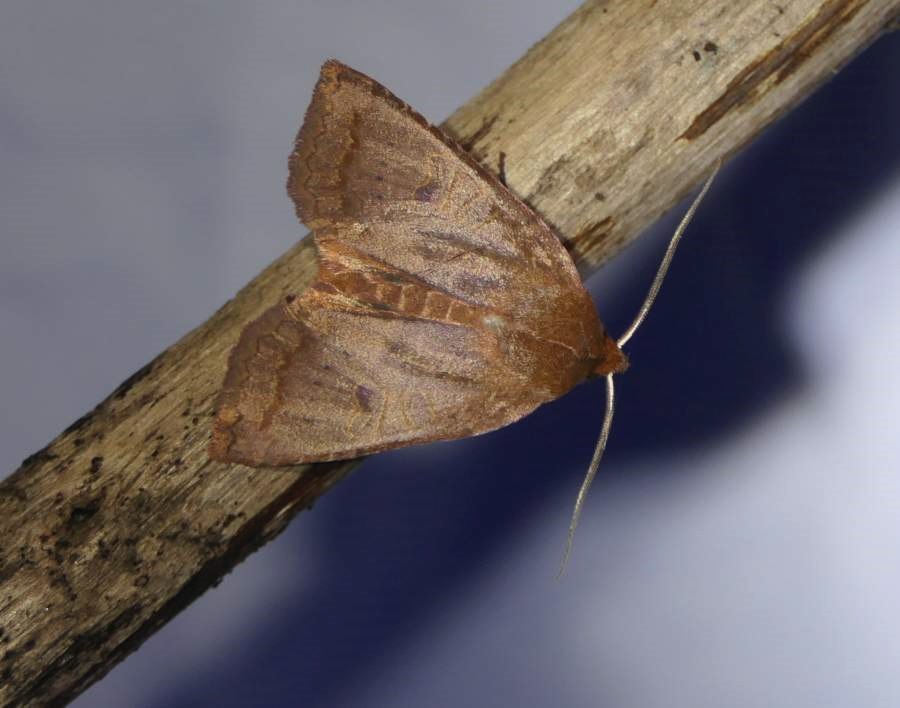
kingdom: Animalia
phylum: Arthropoda
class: Insecta
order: Lepidoptera
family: Noctuidae
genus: Epiglaea
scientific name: Epiglaea decliva
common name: Sloping sallow
